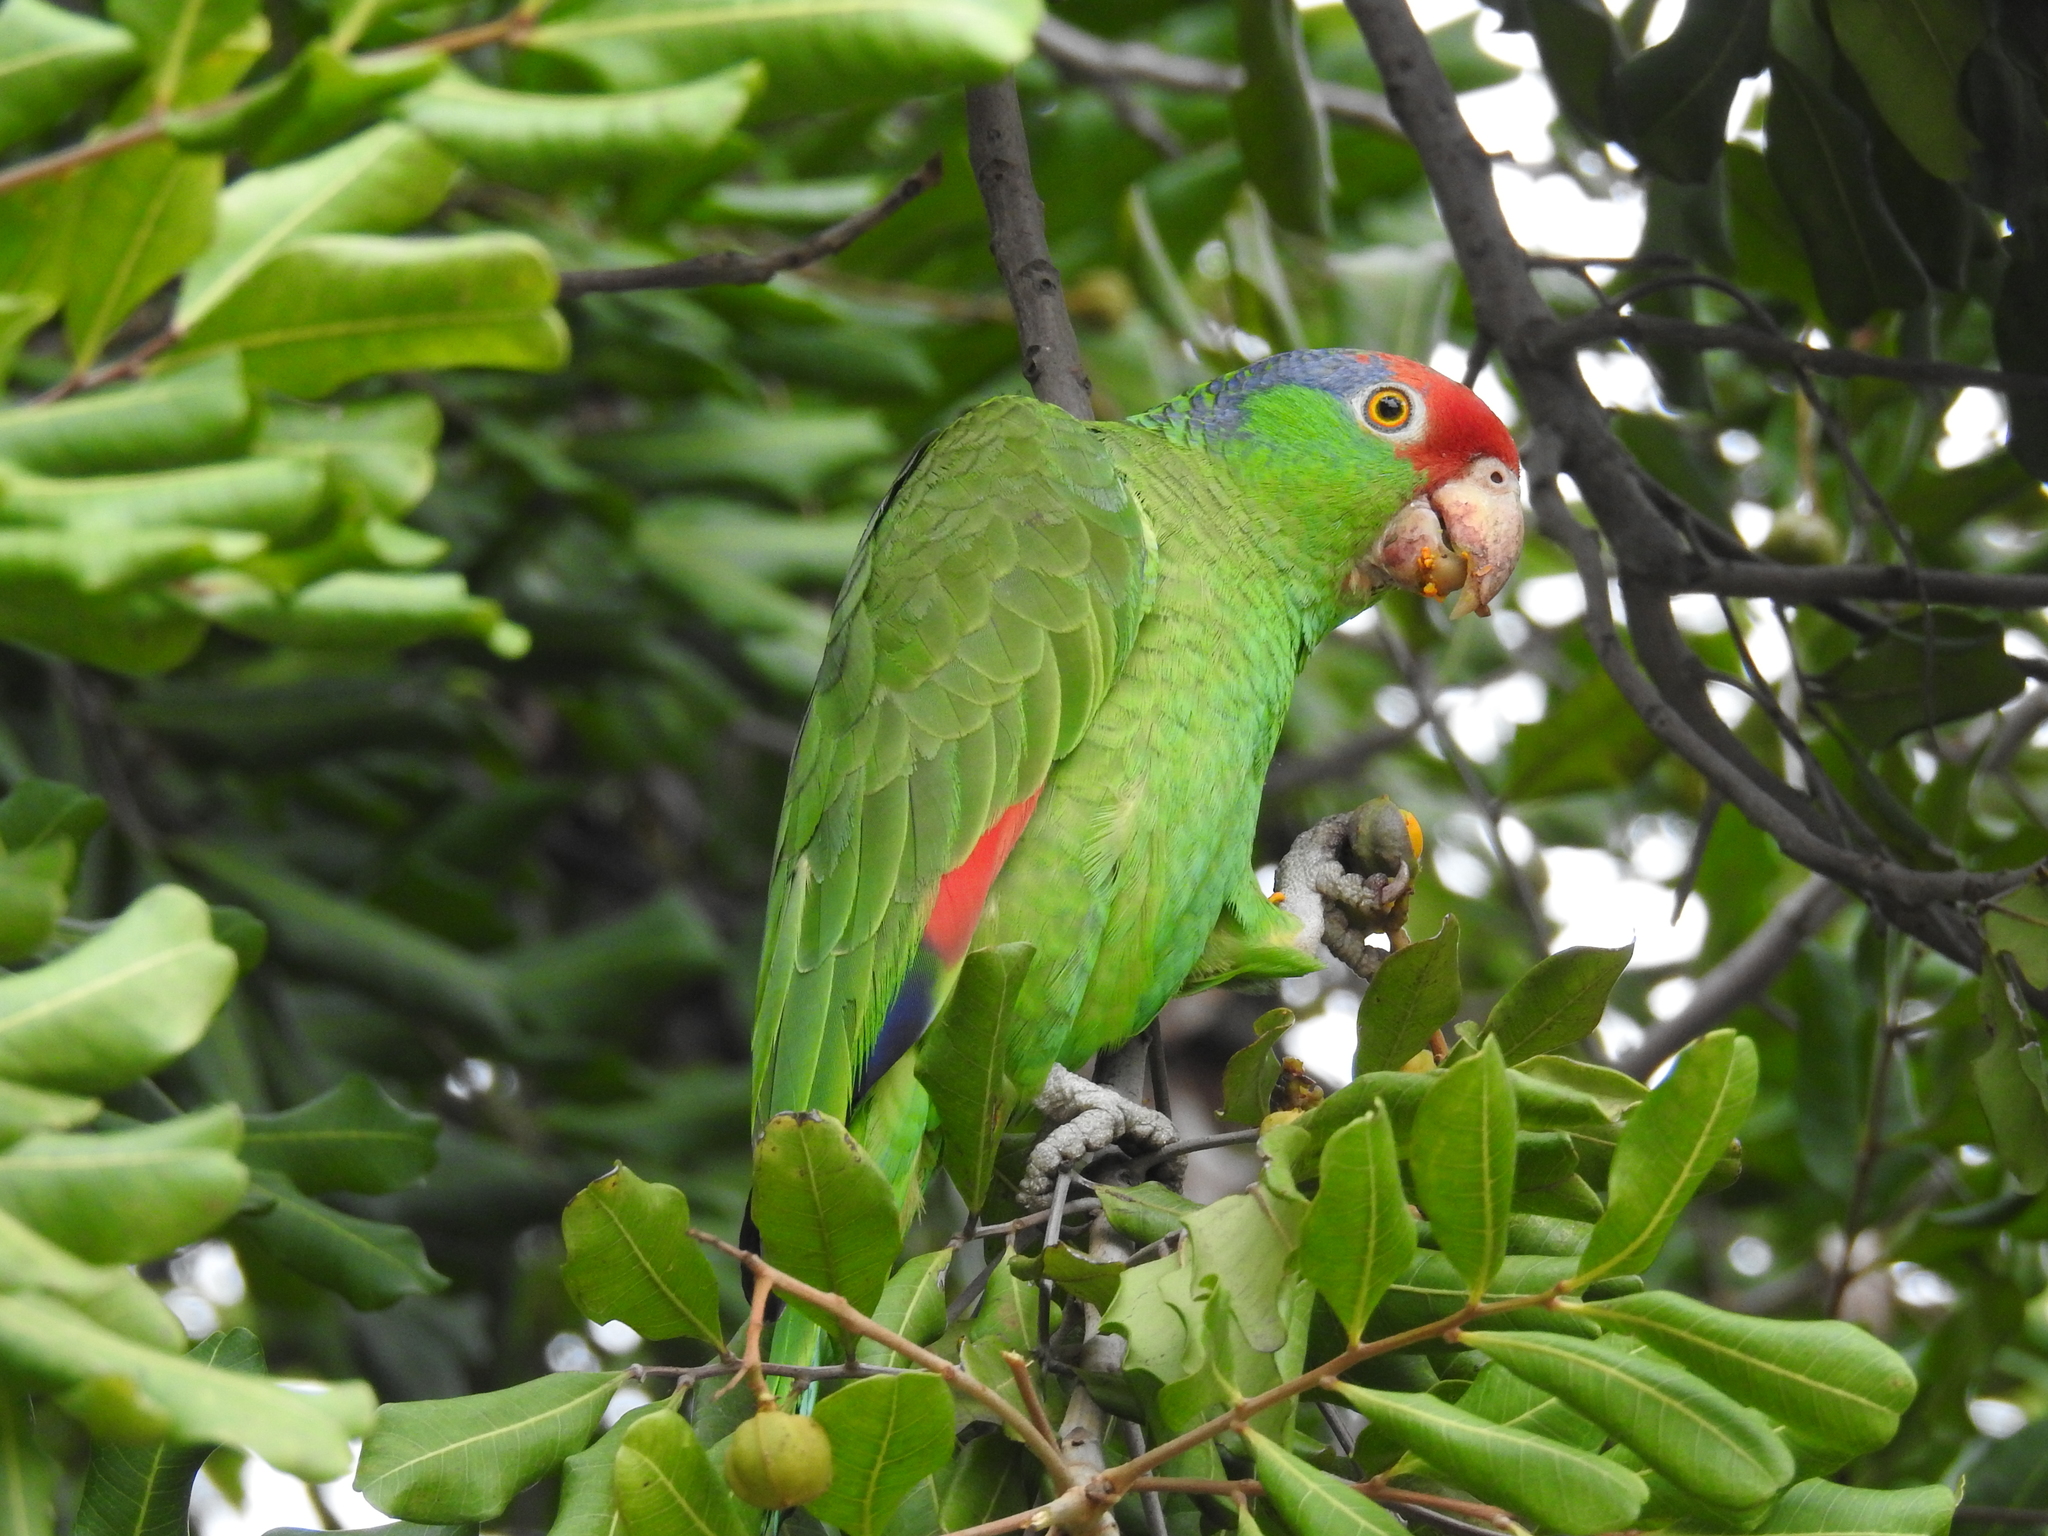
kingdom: Animalia
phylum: Chordata
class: Aves
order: Psittaciformes
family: Psittacidae
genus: Amazona
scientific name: Amazona viridigenalis
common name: Red-crowned amazon
